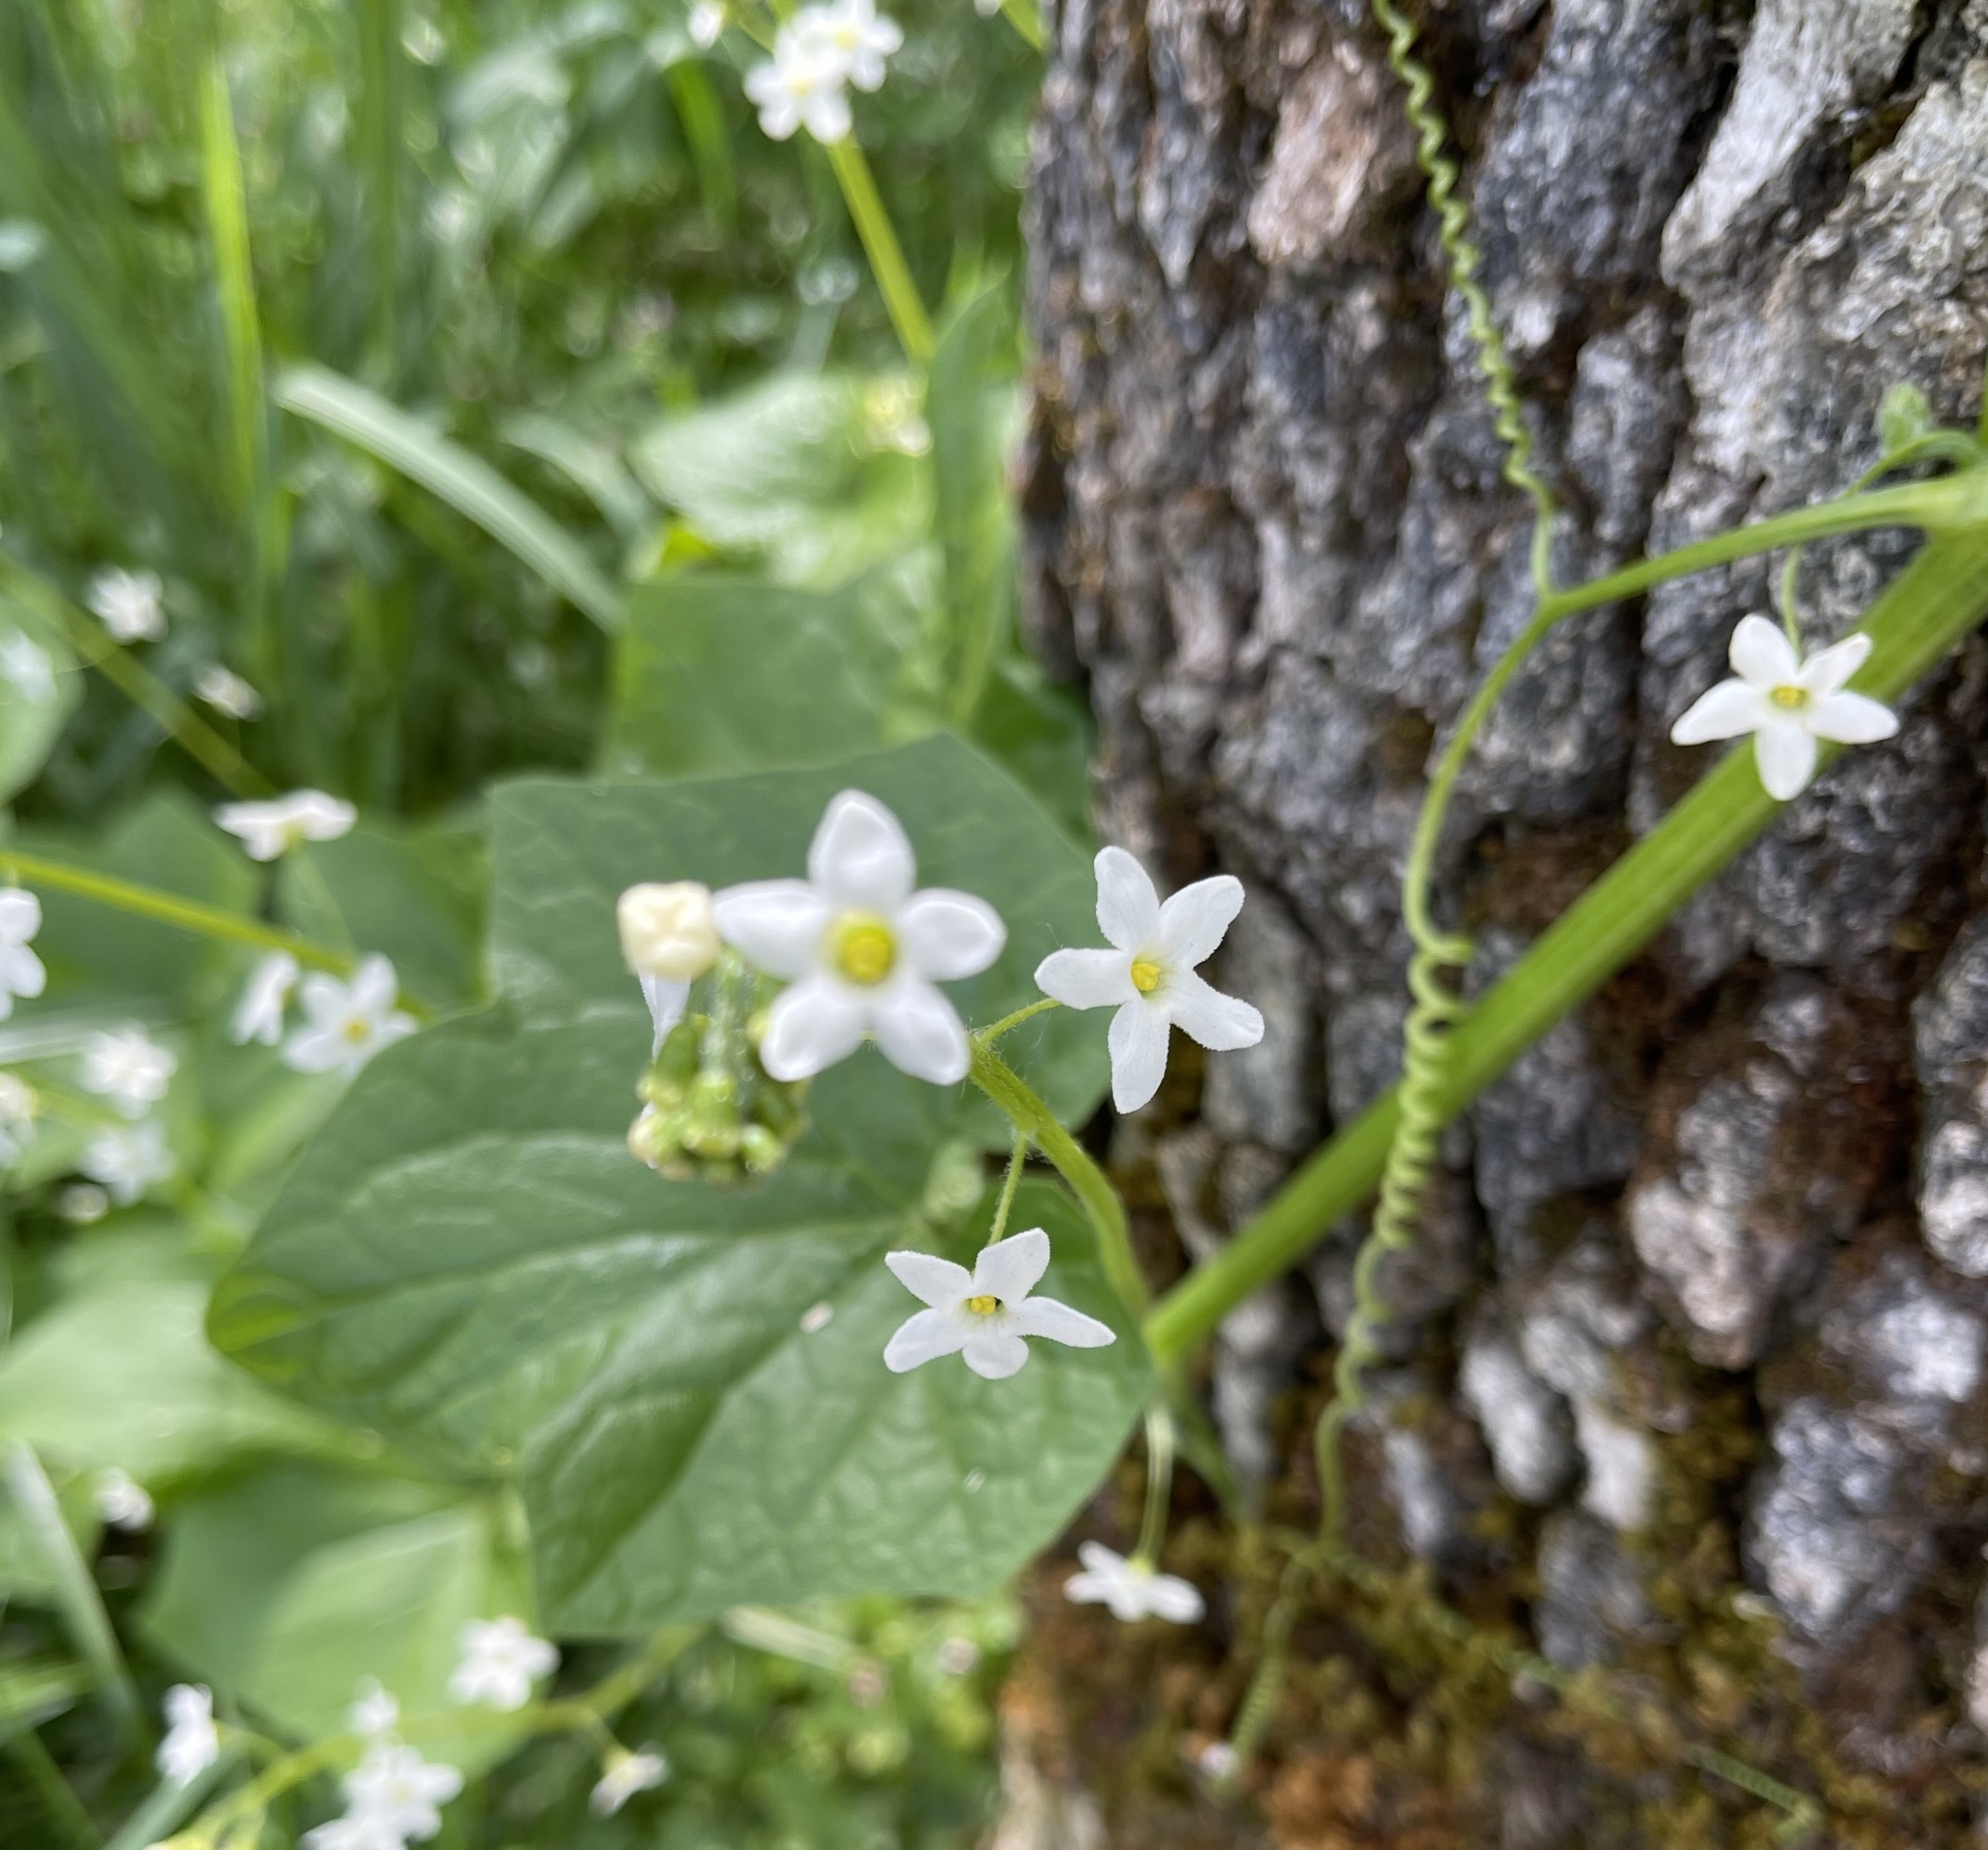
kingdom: Plantae
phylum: Tracheophyta
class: Magnoliopsida
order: Cucurbitales
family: Cucurbitaceae
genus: Marah
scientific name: Marah oregana
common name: Coastal manroot
